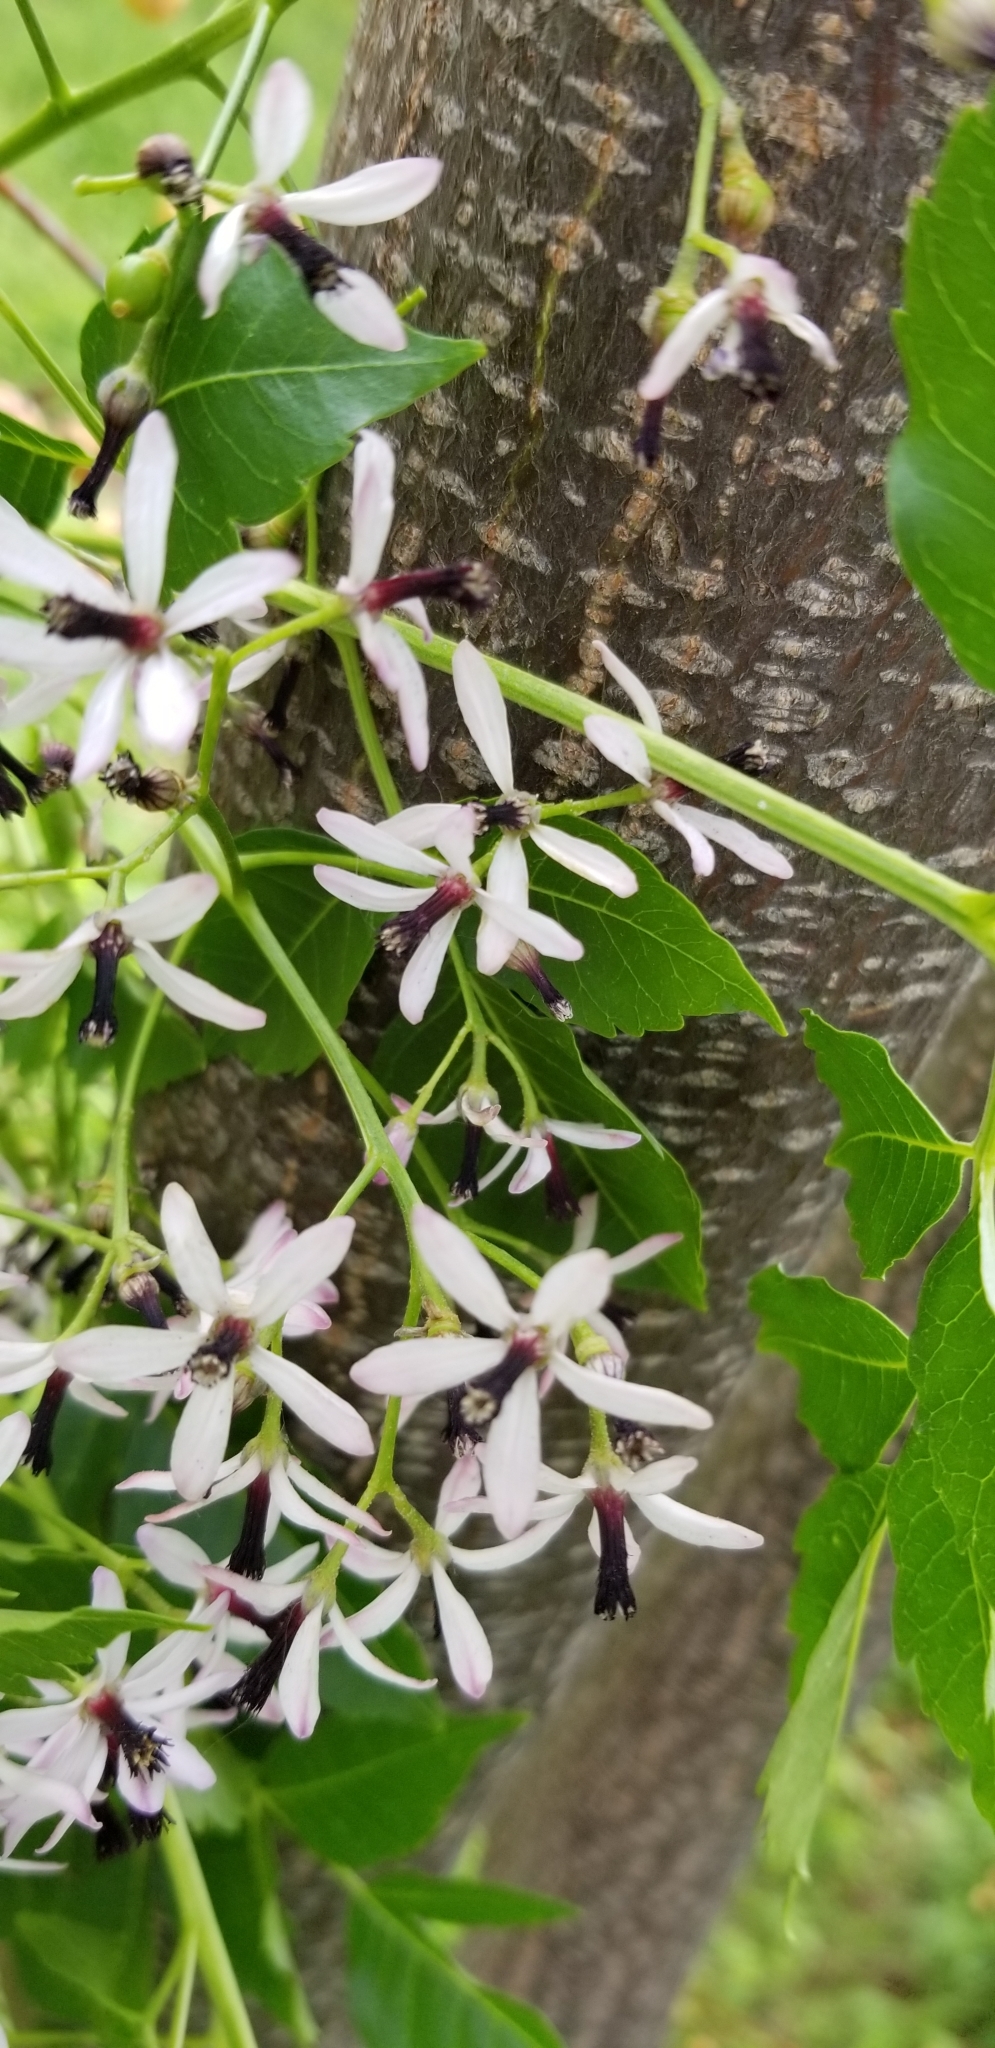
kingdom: Plantae
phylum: Tracheophyta
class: Magnoliopsida
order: Sapindales
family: Meliaceae
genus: Melia
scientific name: Melia azedarach
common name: Chinaberrytree
